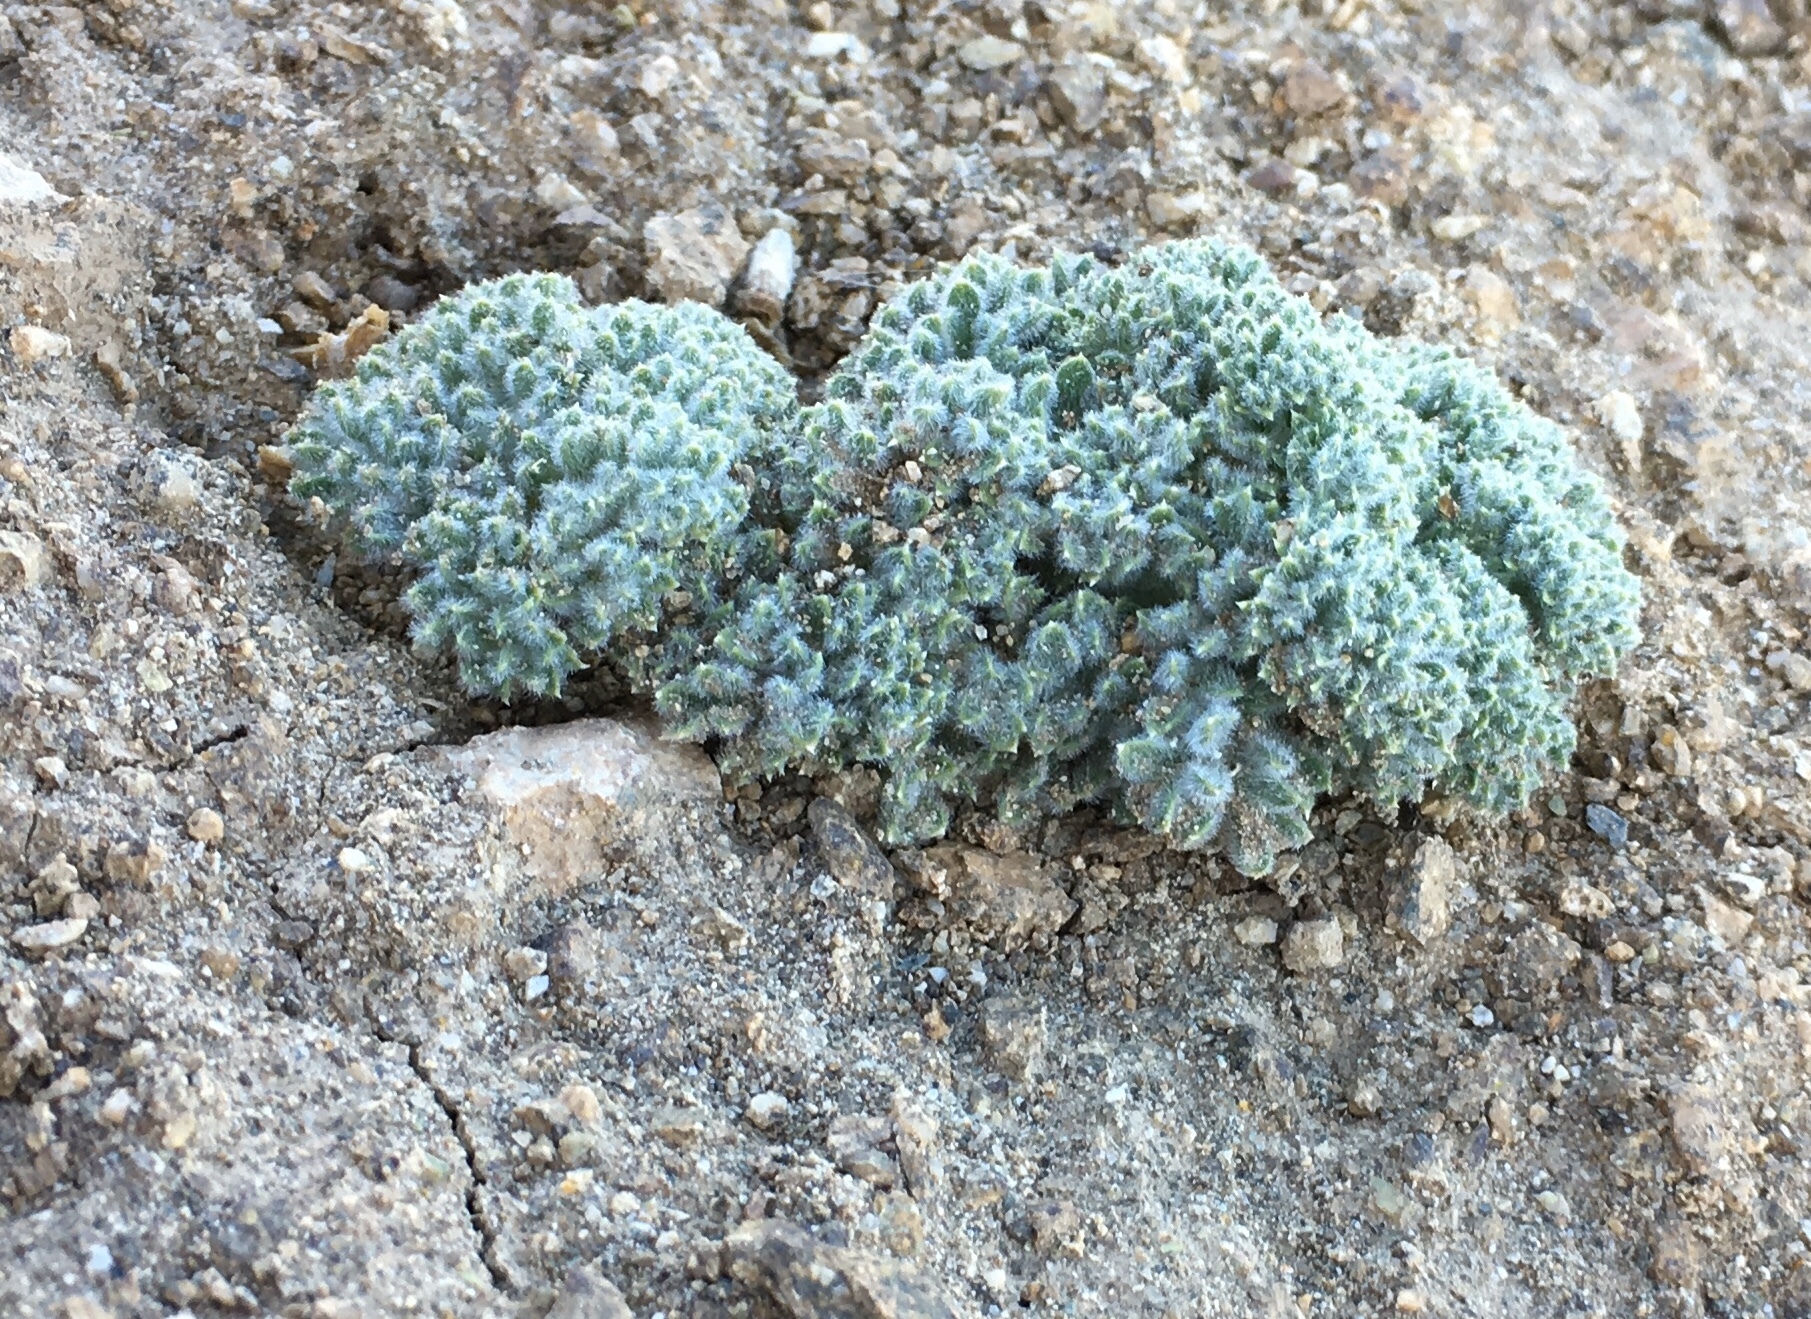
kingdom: Plantae
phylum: Tracheophyta
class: Magnoliopsida
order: Apiales
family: Apiaceae
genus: Oreonana
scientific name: Oreonana vestita
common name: Woolly mountain-parsley
